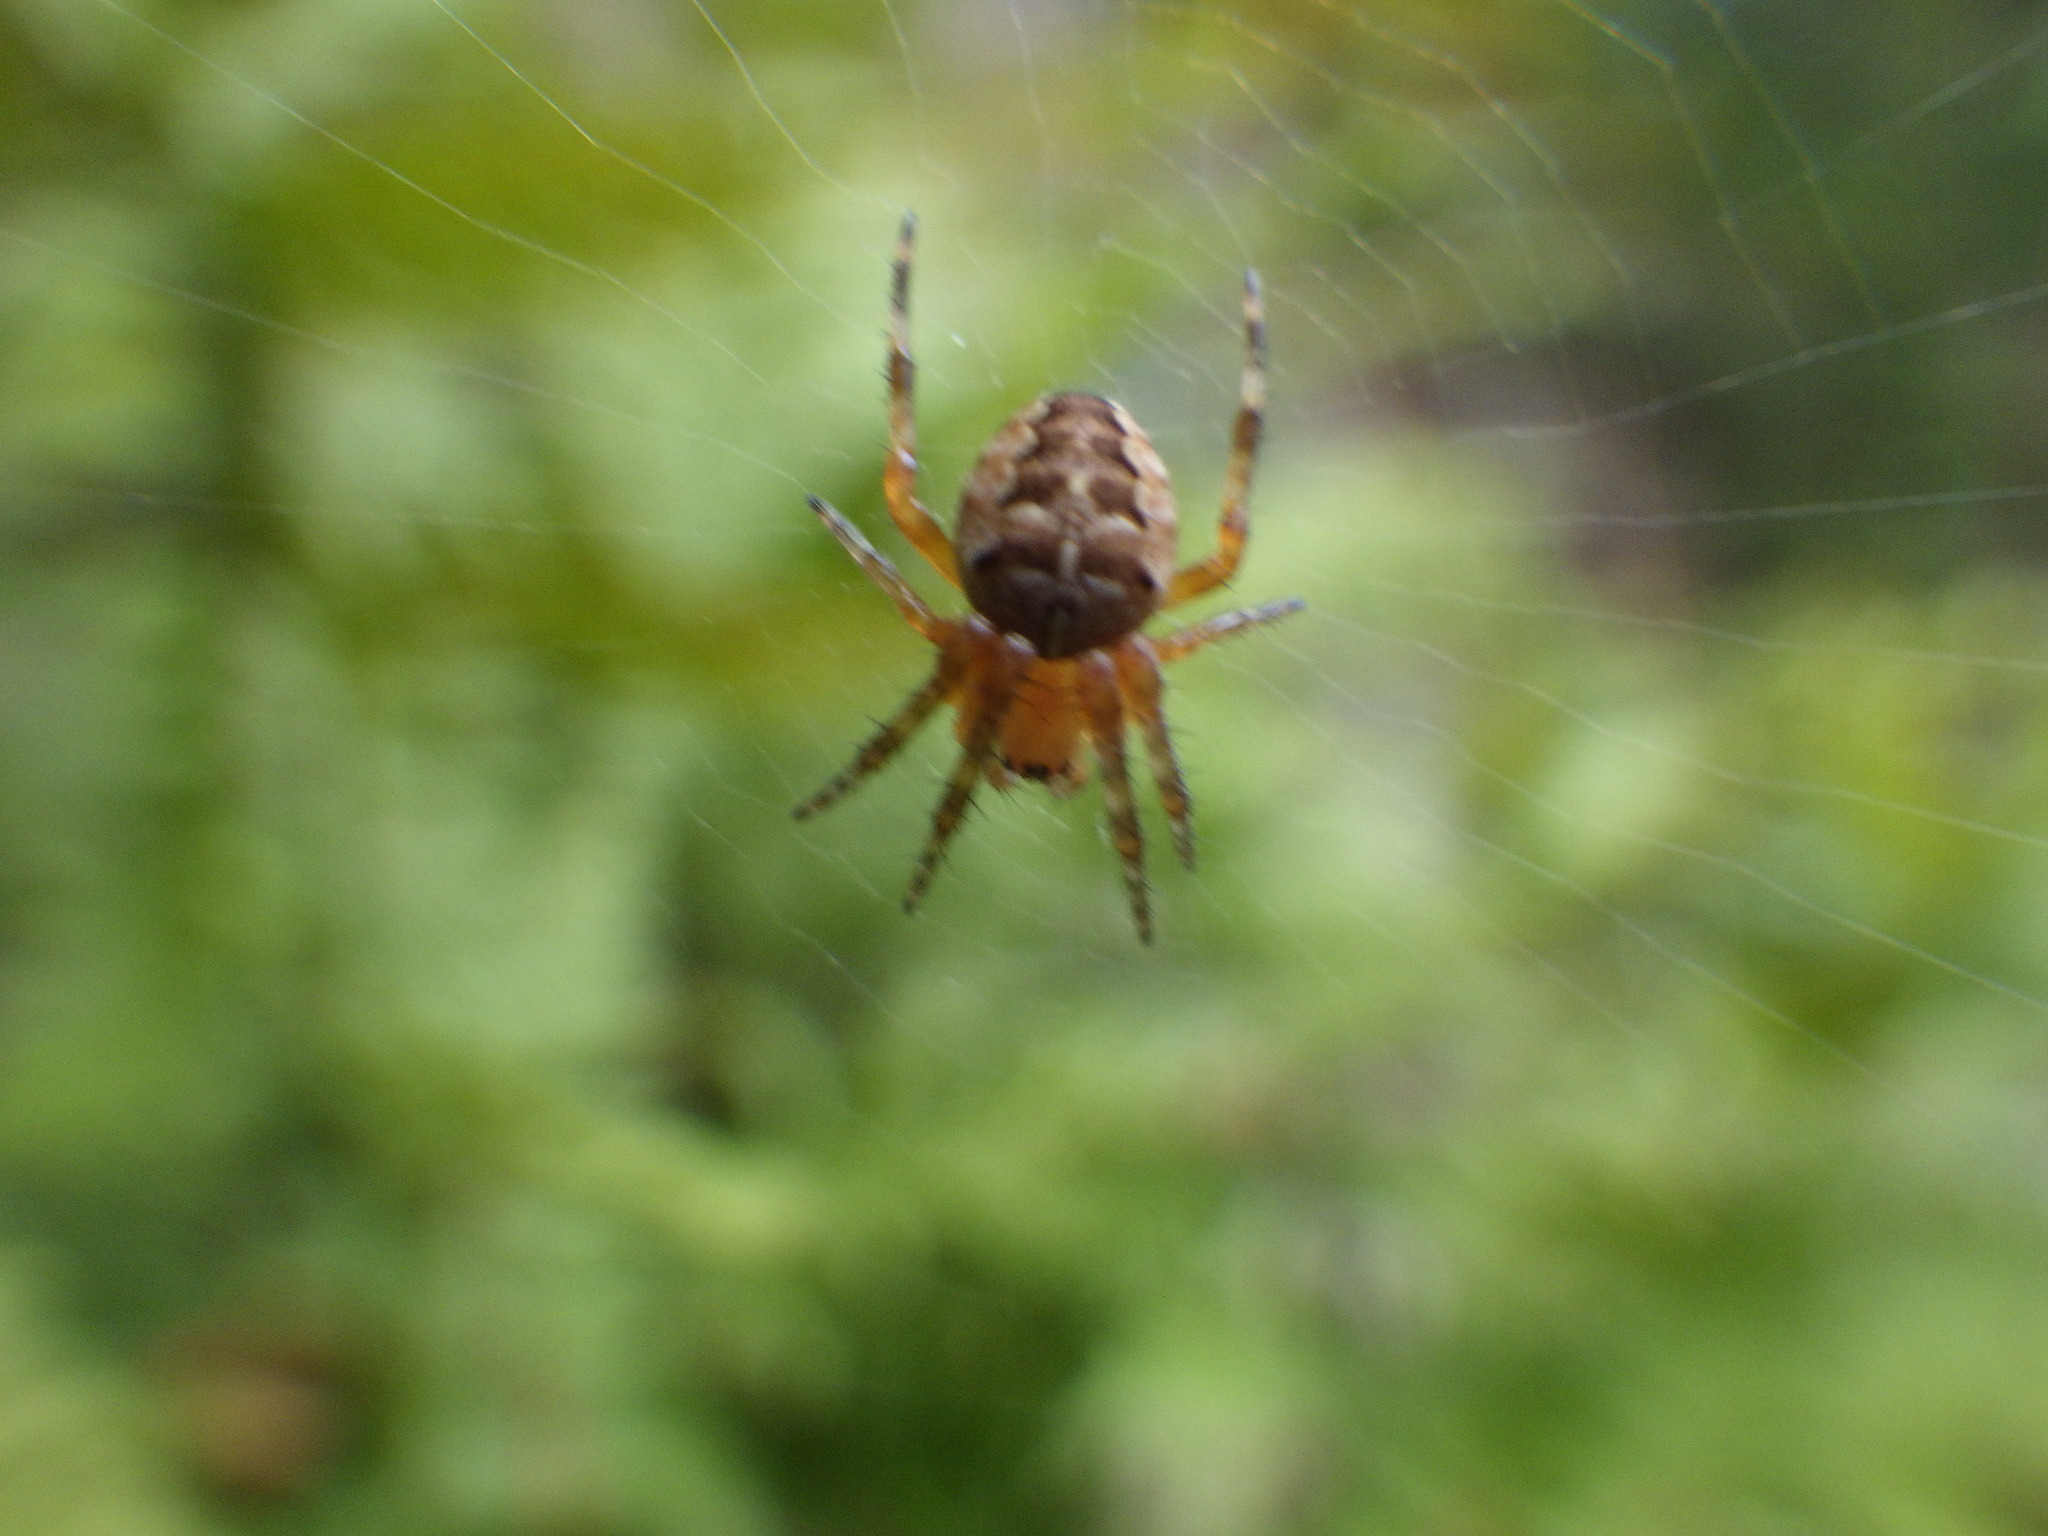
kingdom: Animalia
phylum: Arthropoda
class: Arachnida
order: Araneae
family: Araneidae
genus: Araneus
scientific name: Araneus diadematus
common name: Cross orbweaver
